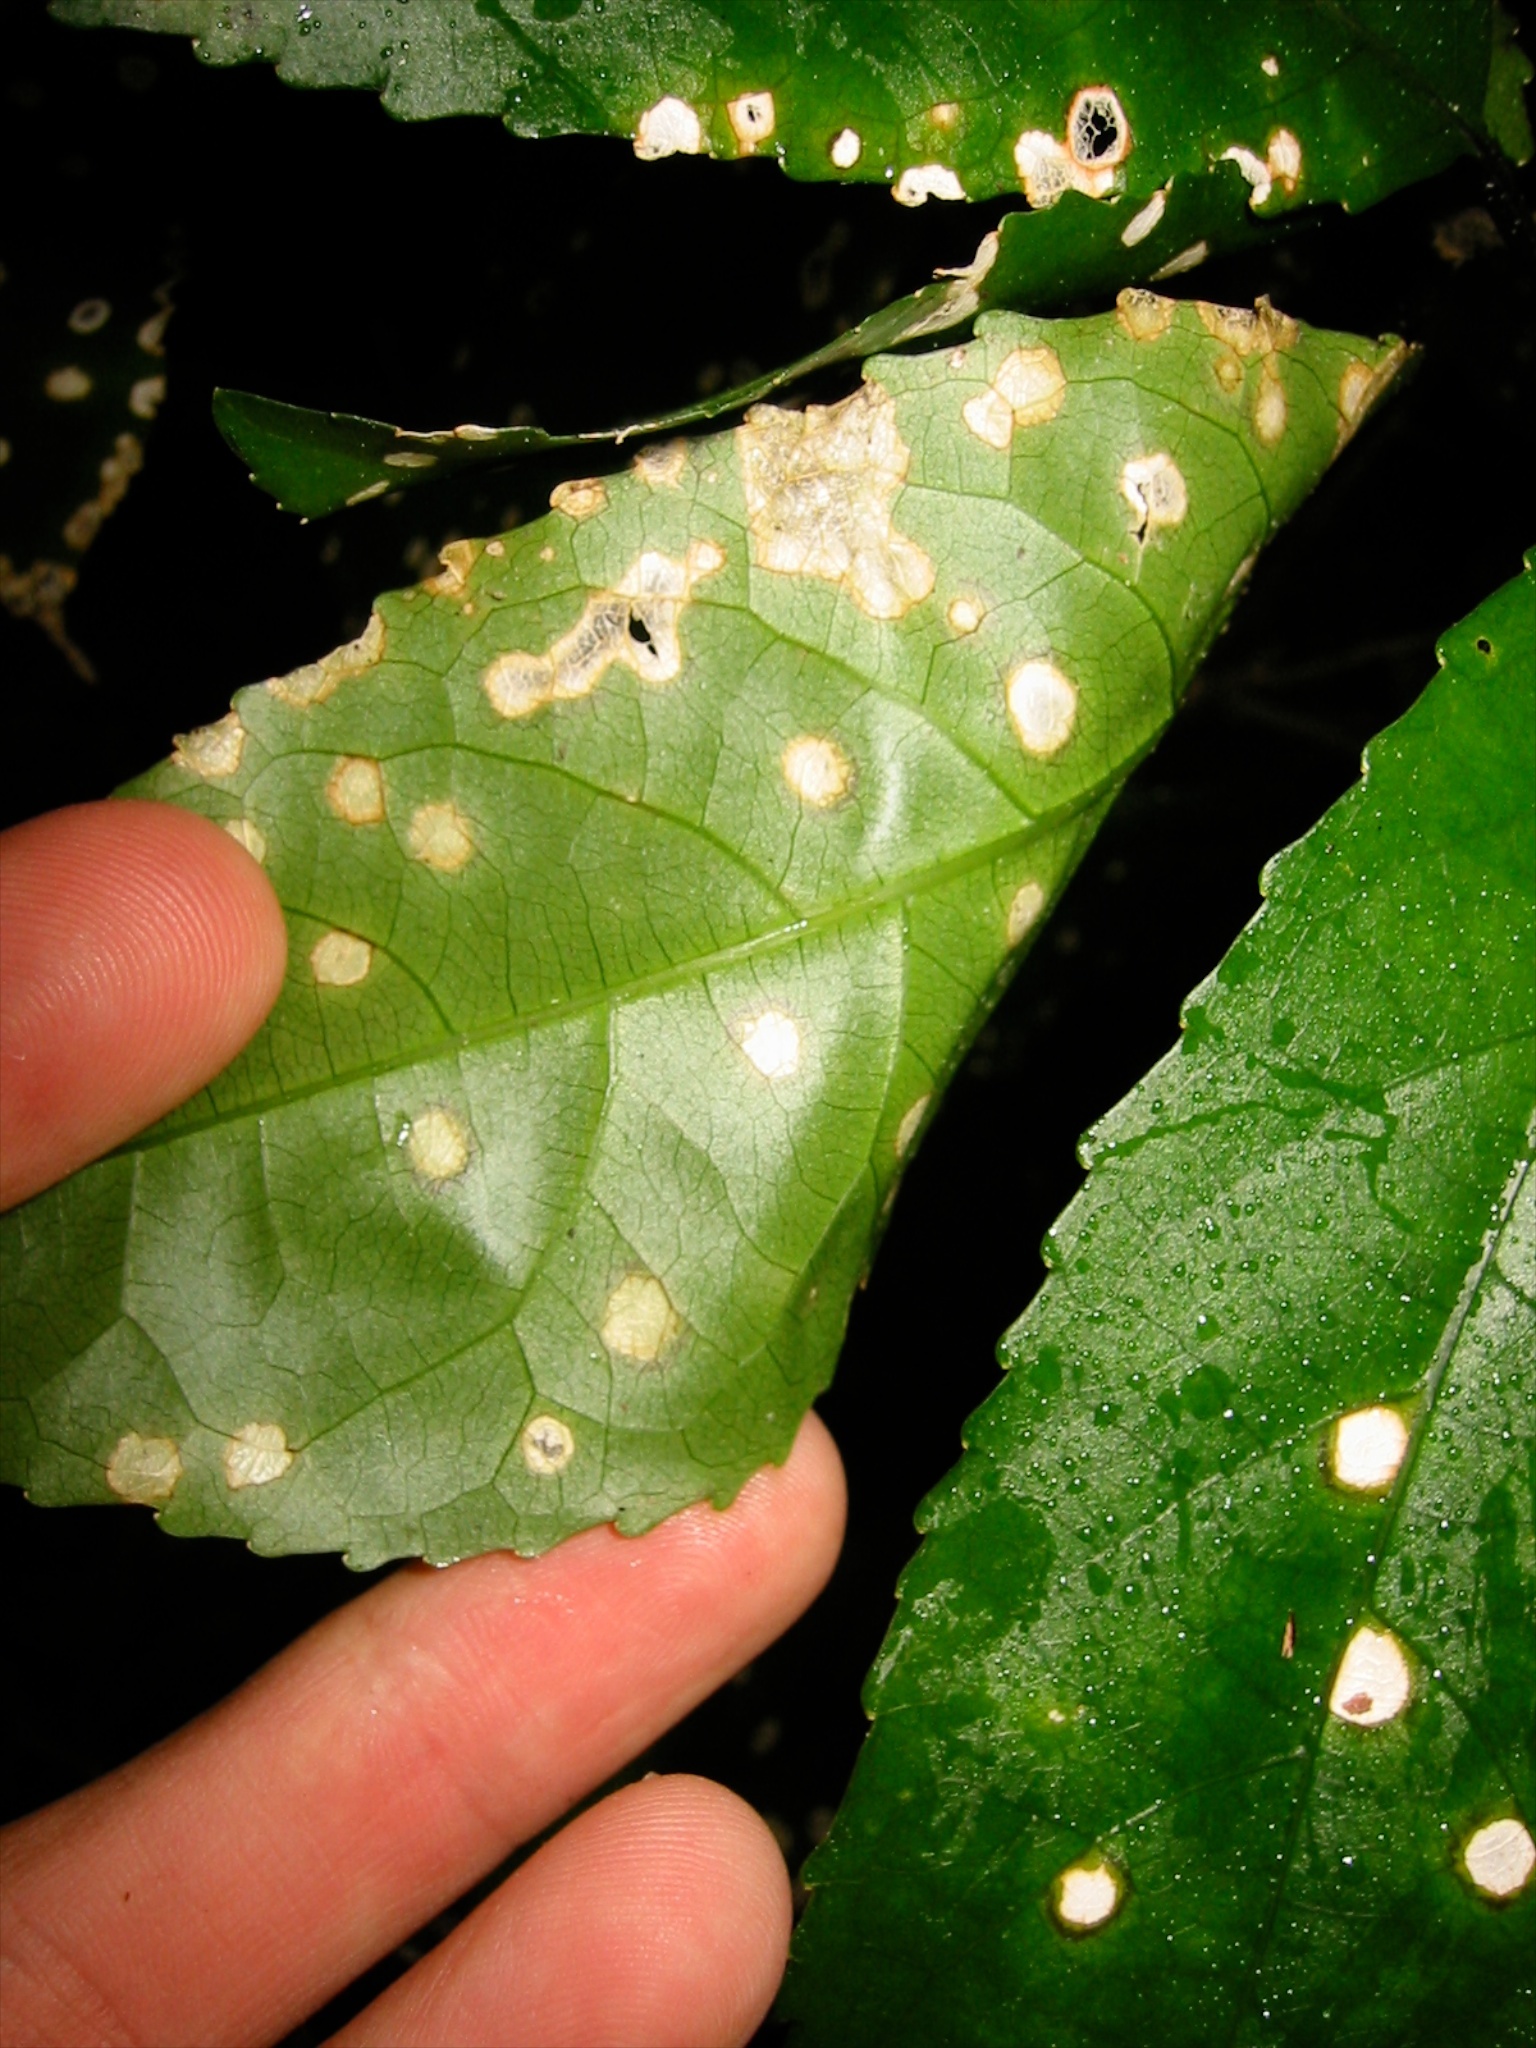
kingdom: Fungi
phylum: Ascomycota
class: Dothideomycetes
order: Botryosphaeriales
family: Planistromellaceae
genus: Diplochorella
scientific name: Diplochorella colensoi
